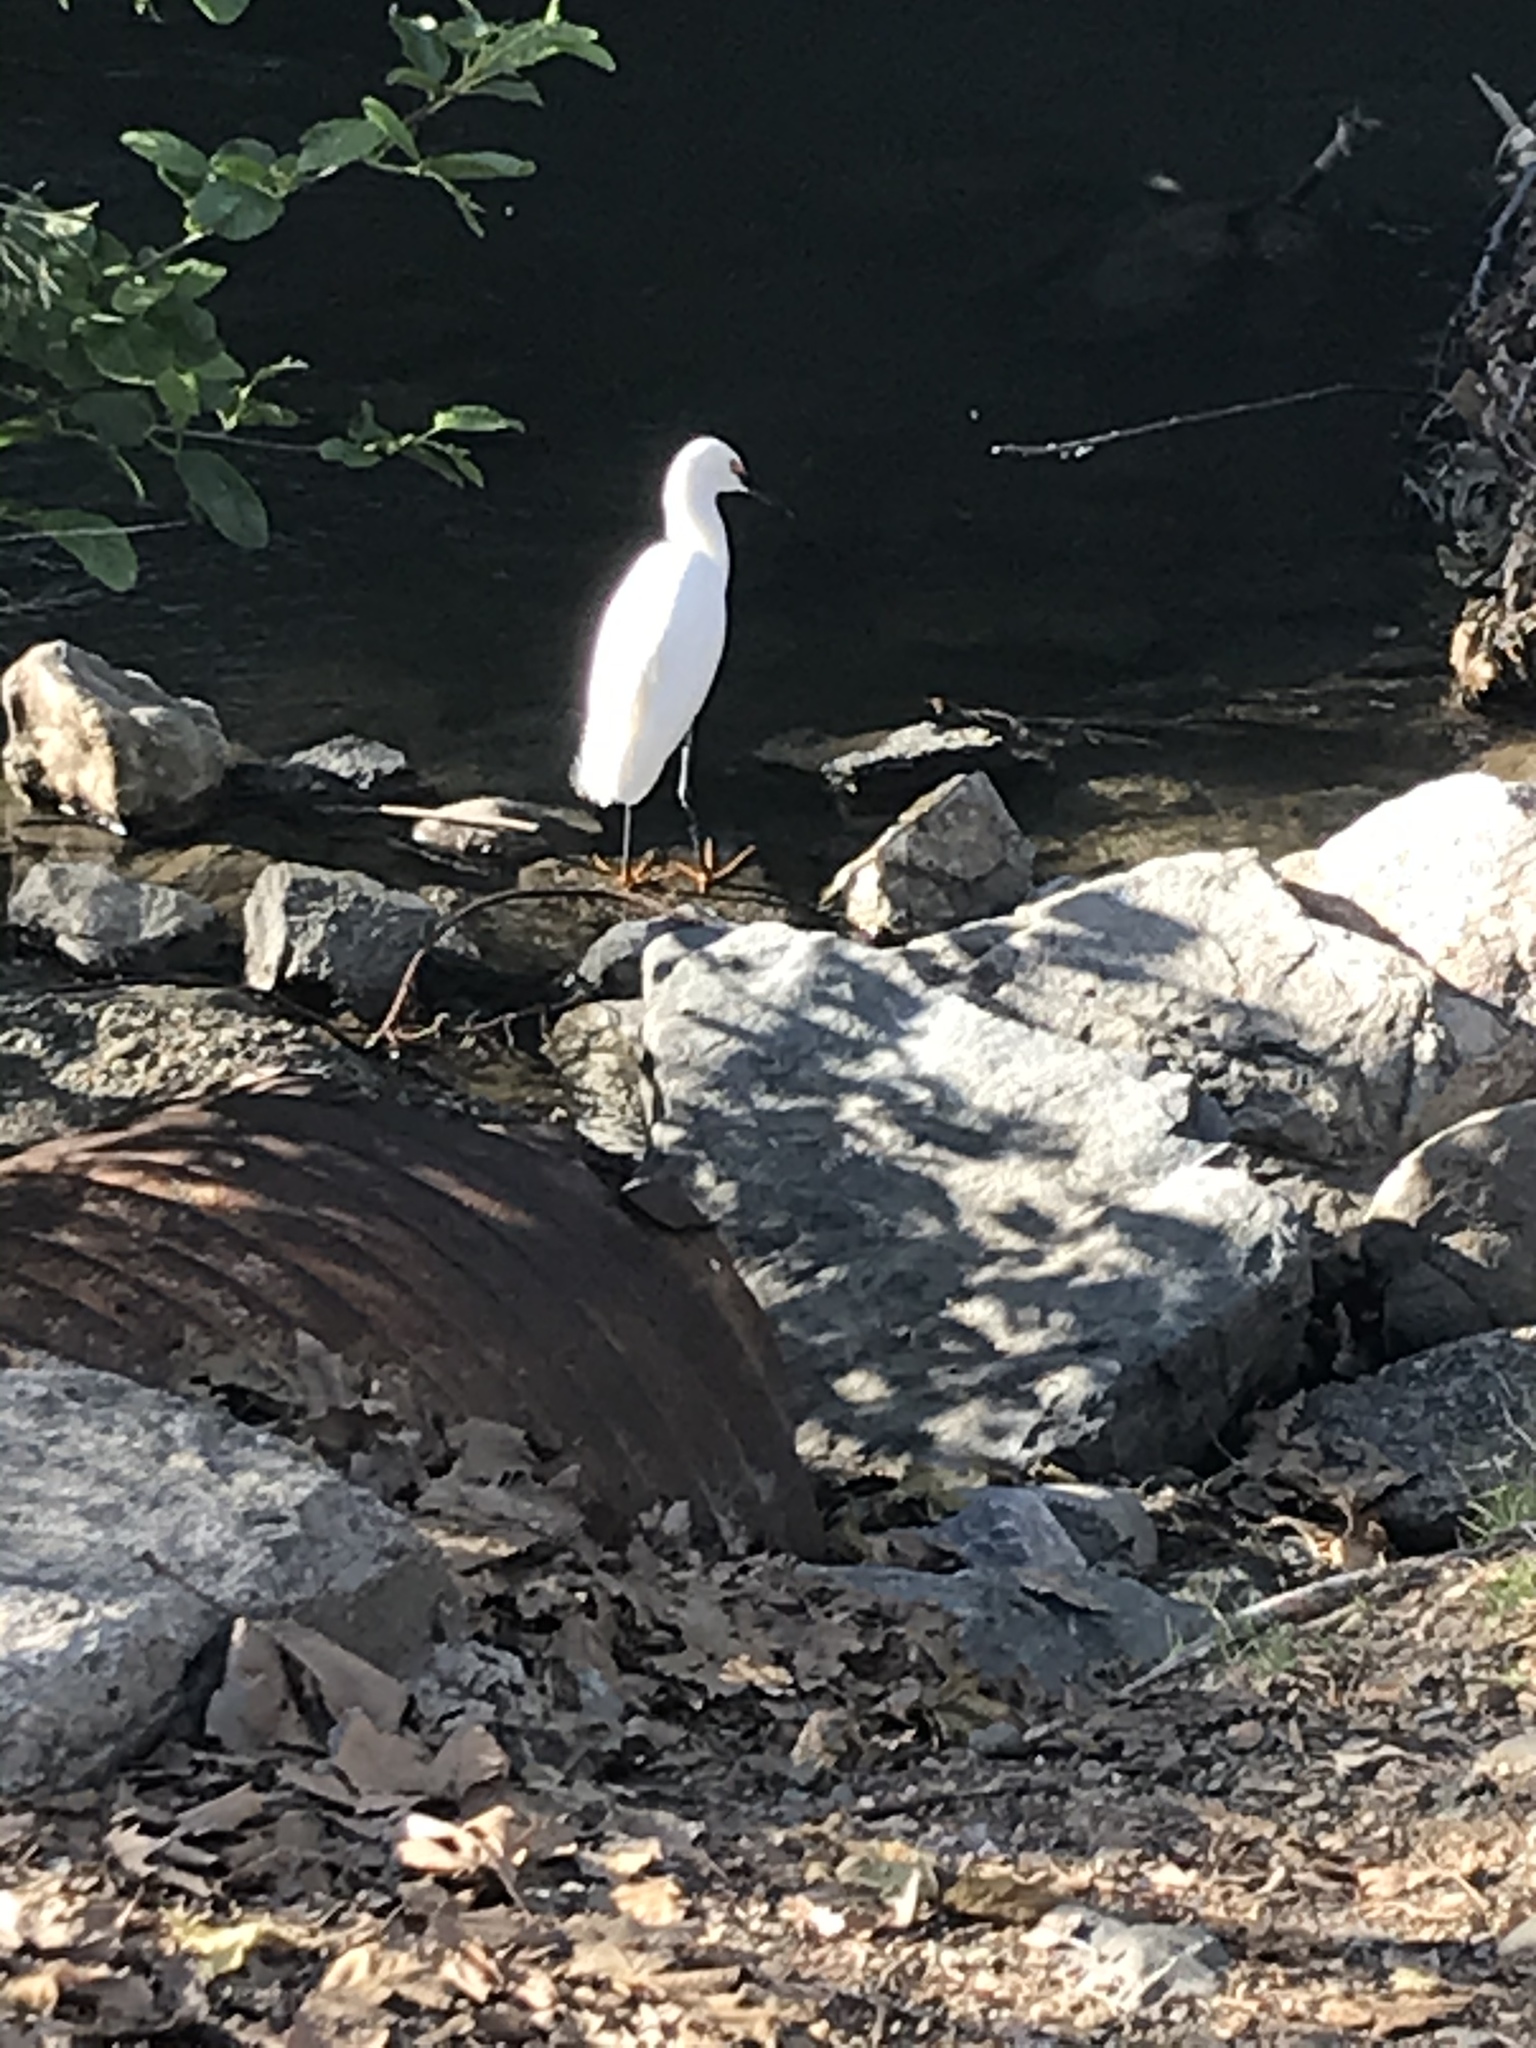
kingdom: Animalia
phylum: Chordata
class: Aves
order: Pelecaniformes
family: Ardeidae
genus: Egretta
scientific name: Egretta thula
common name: Snowy egret
